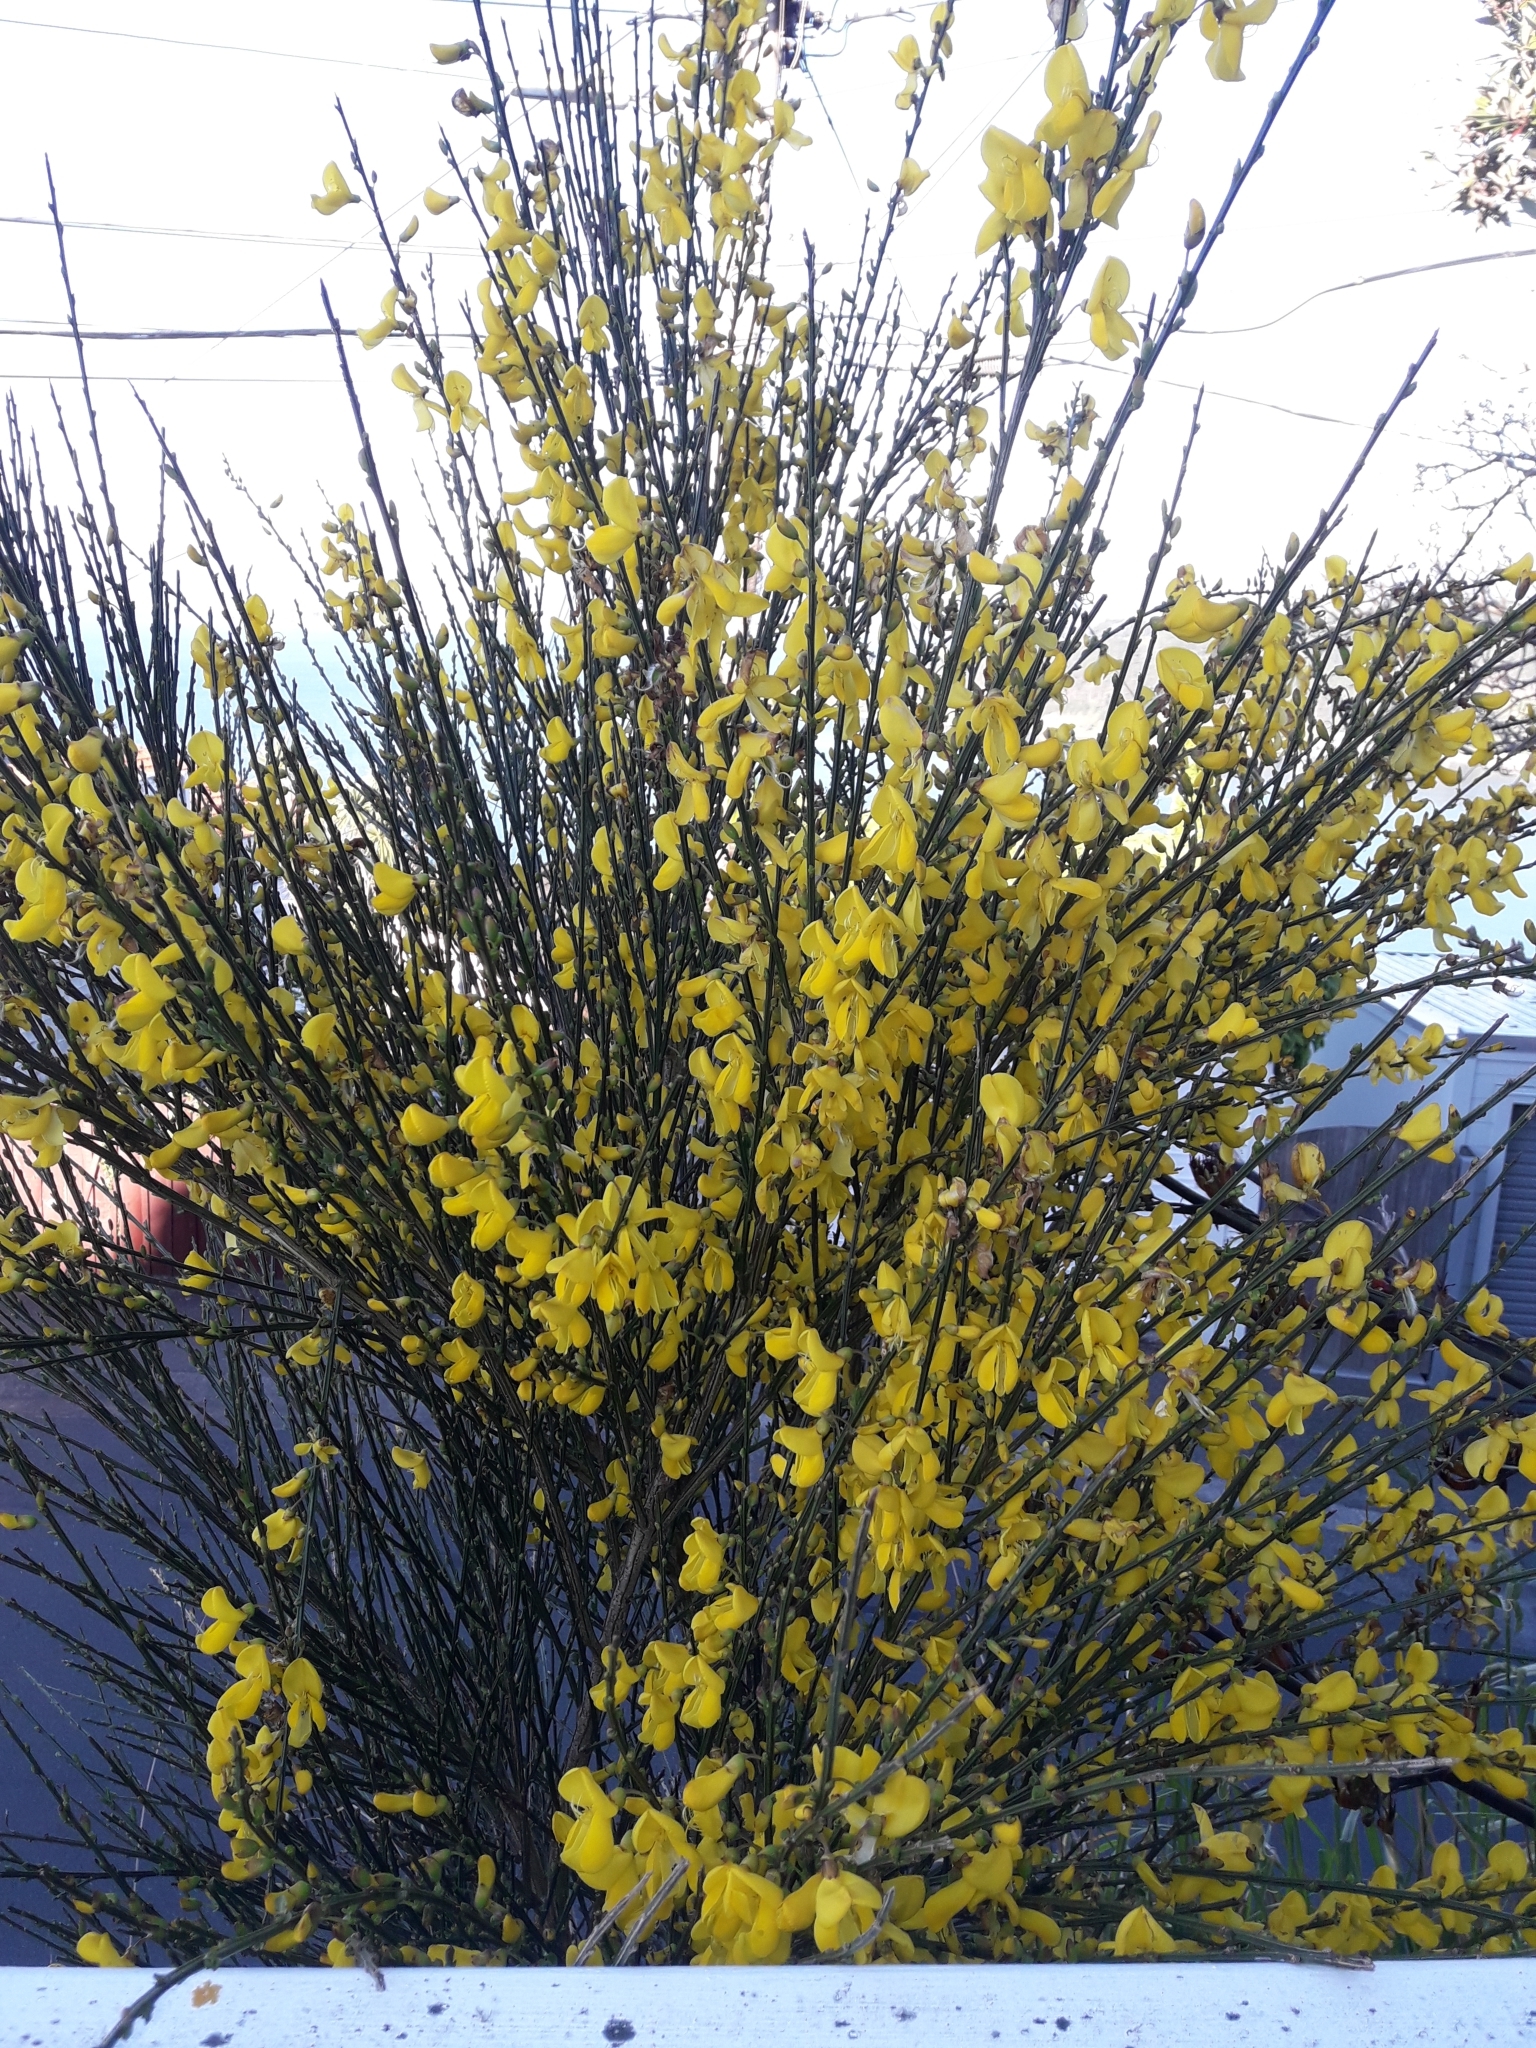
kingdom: Plantae
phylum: Tracheophyta
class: Magnoliopsida
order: Fabales
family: Fabaceae
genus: Cytisus
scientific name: Cytisus scoparius
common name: Scotch broom
